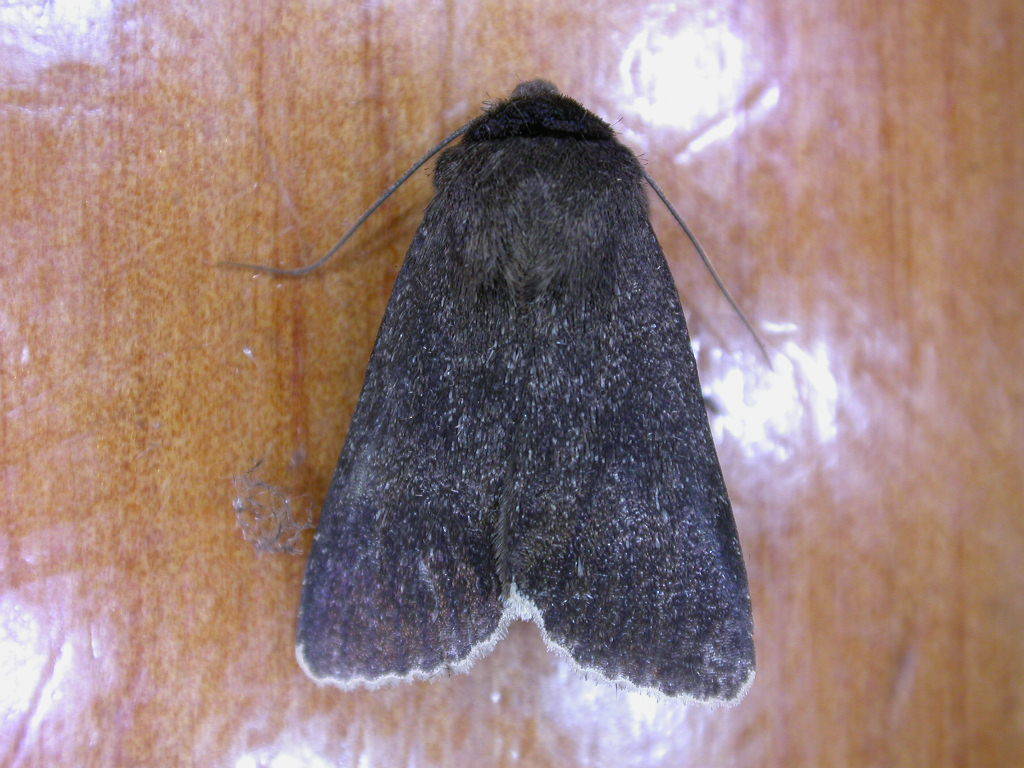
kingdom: Animalia
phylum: Arthropoda
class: Insecta
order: Lepidoptera
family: Noctuidae
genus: Bityla
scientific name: Bityla sericea
